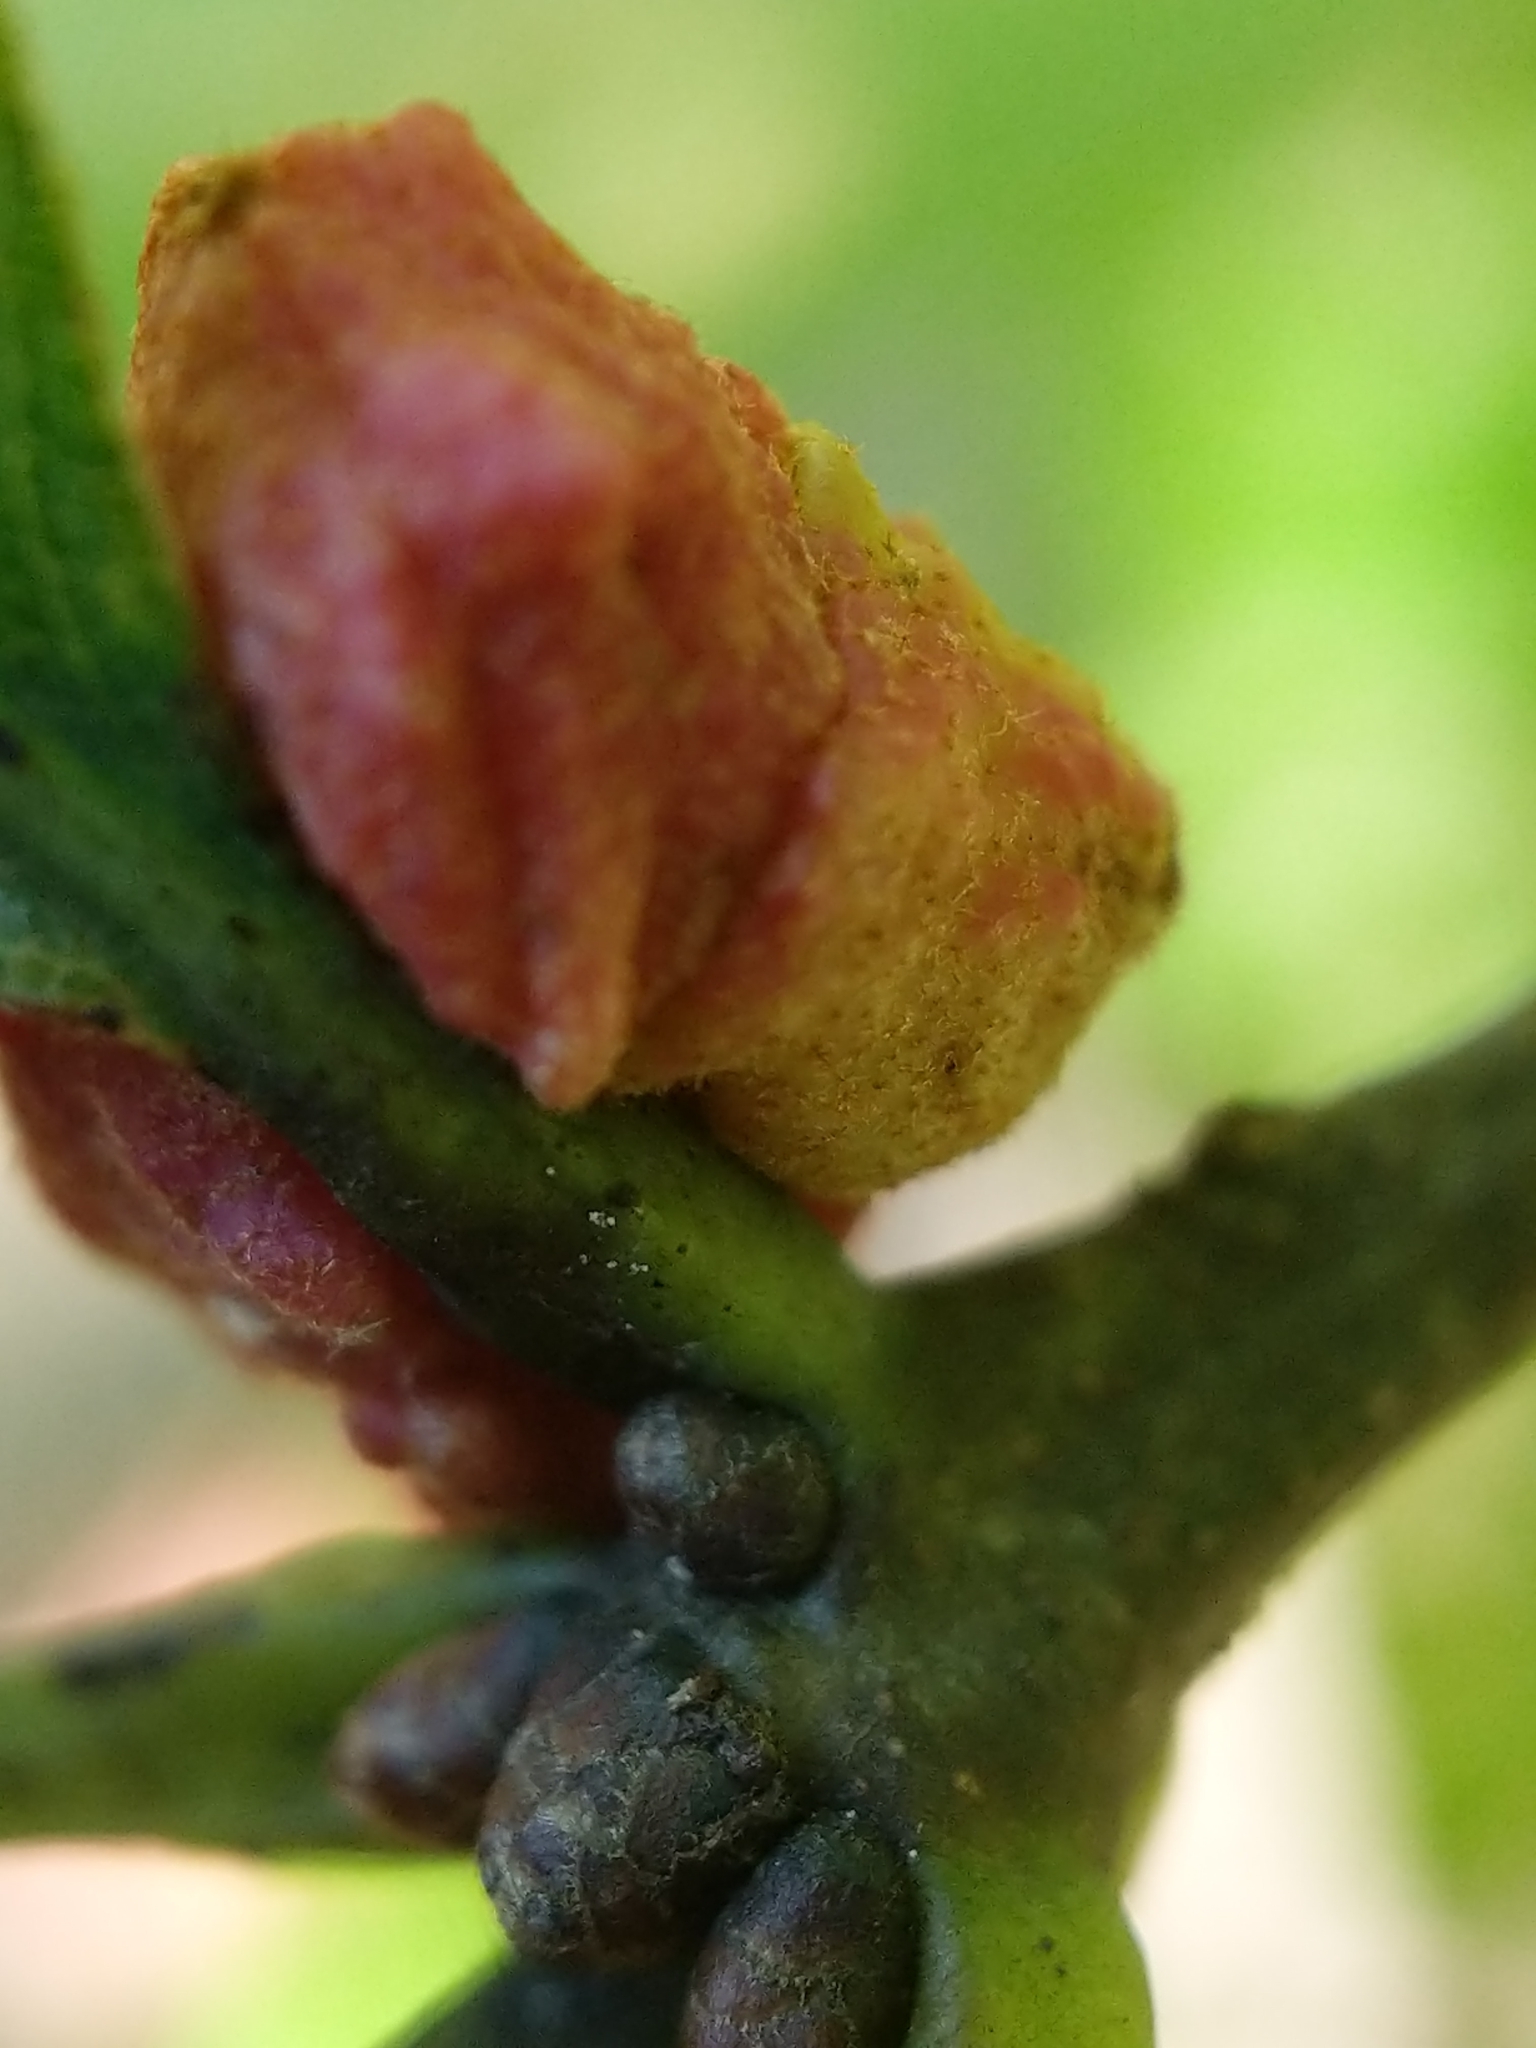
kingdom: Animalia
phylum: Arthropoda
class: Insecta
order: Hymenoptera
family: Cynipidae
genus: Andricus
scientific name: Andricus
